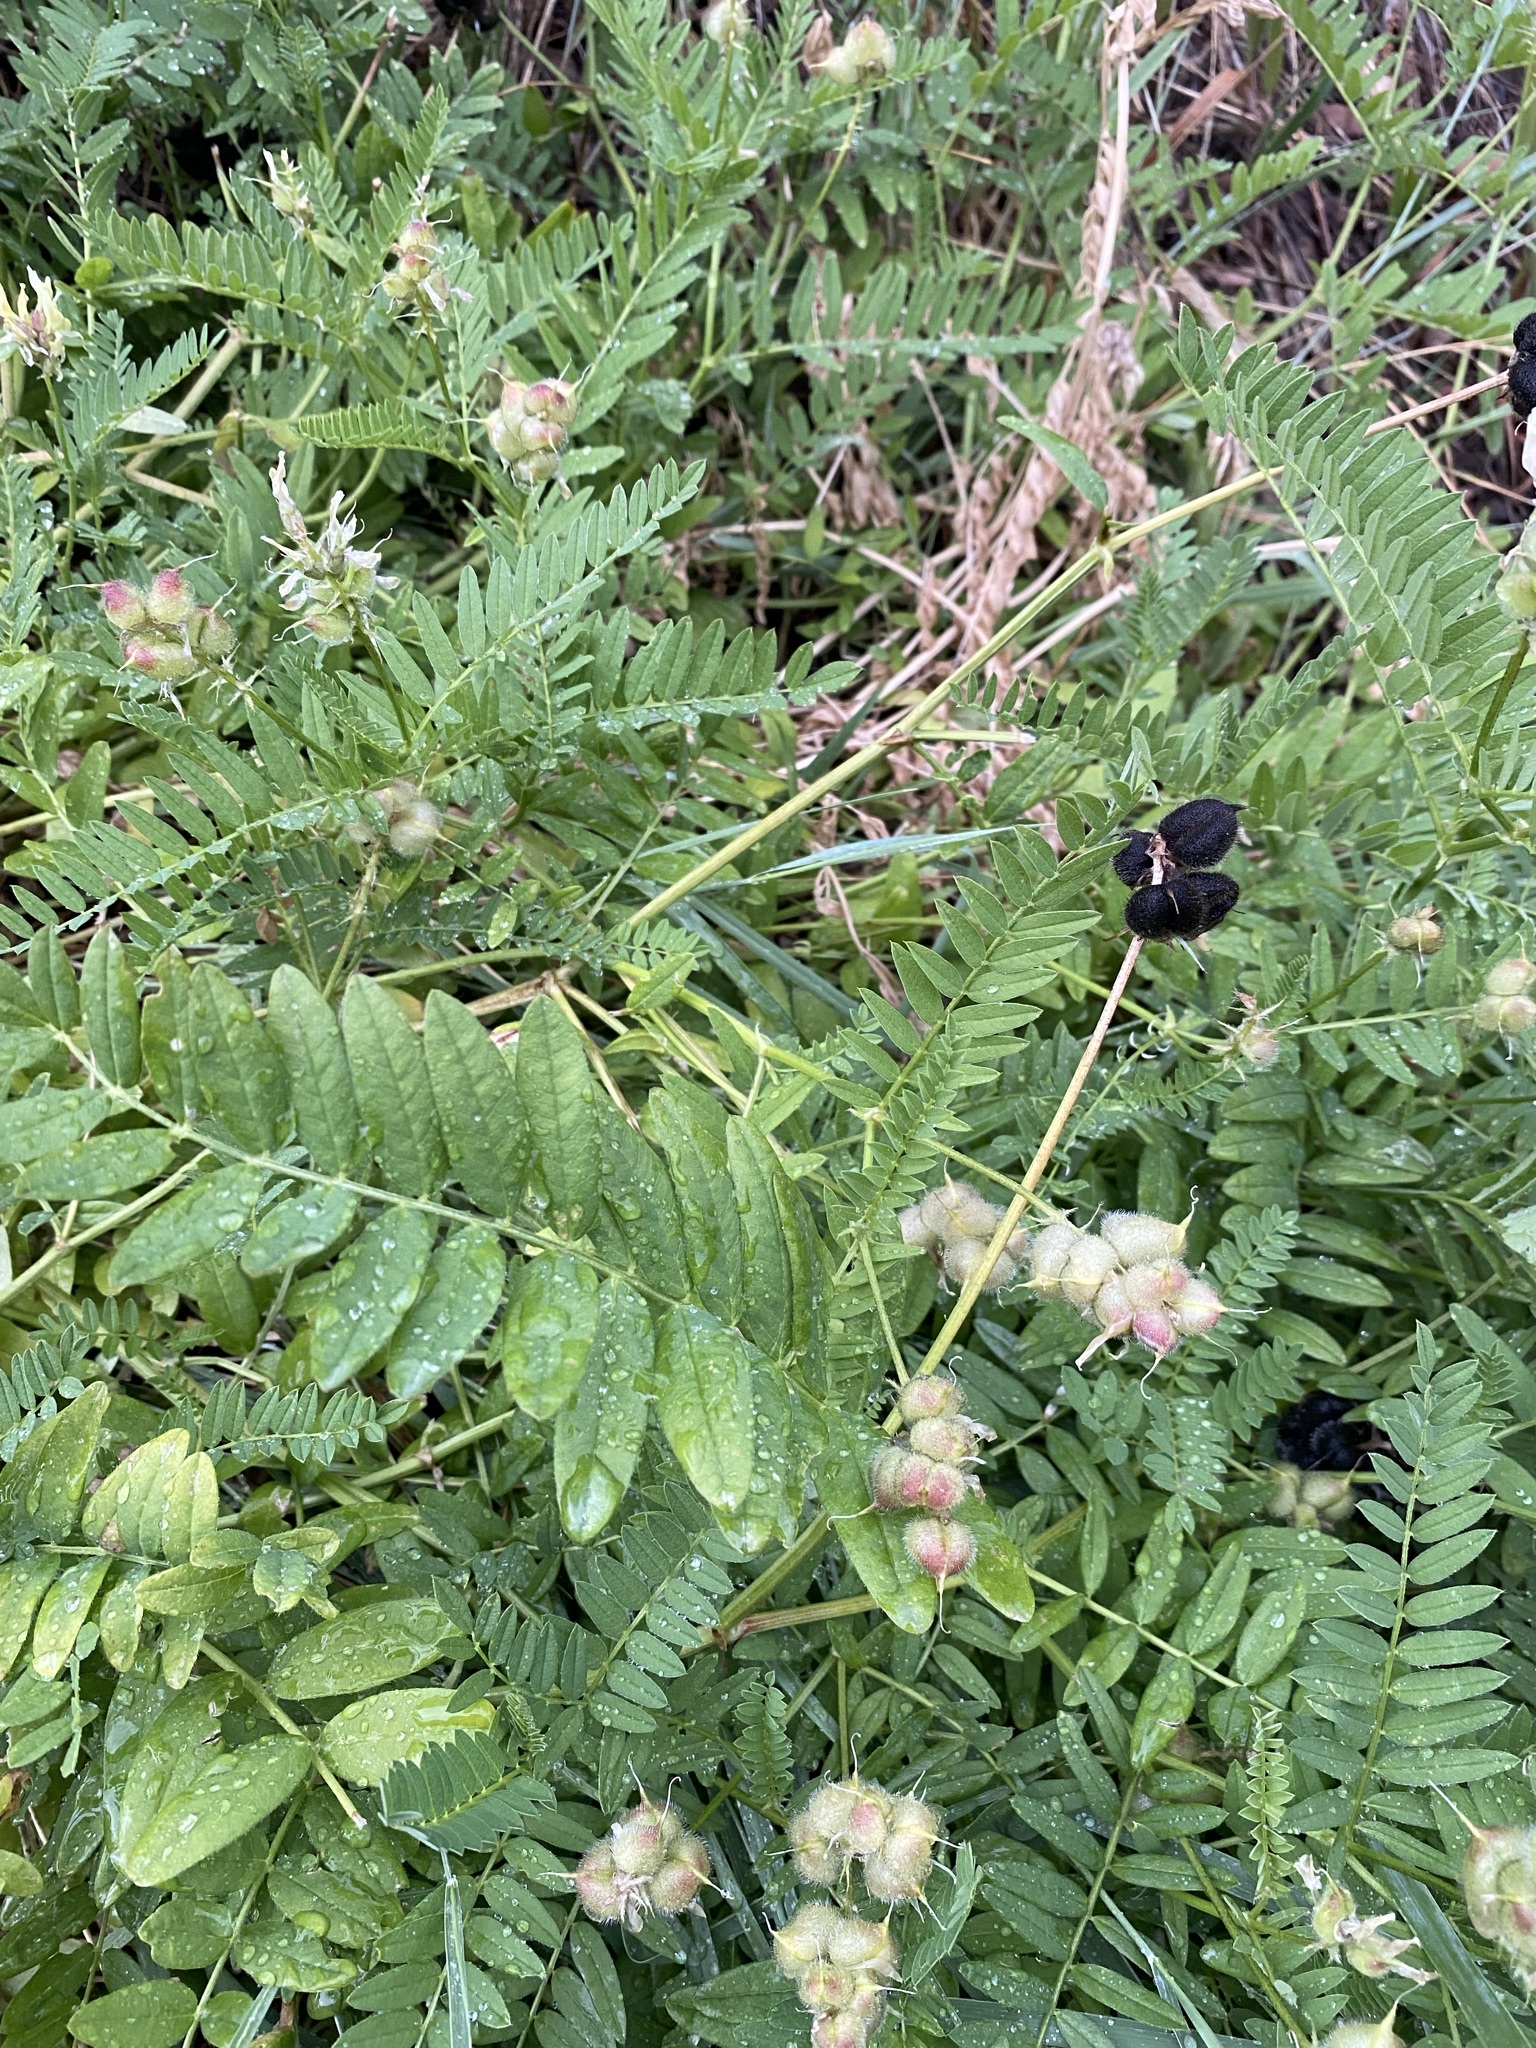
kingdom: Plantae
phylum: Tracheophyta
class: Magnoliopsida
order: Fabales
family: Fabaceae
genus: Astragalus
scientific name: Astragalus cicer
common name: Chick-pea milk-vetch
